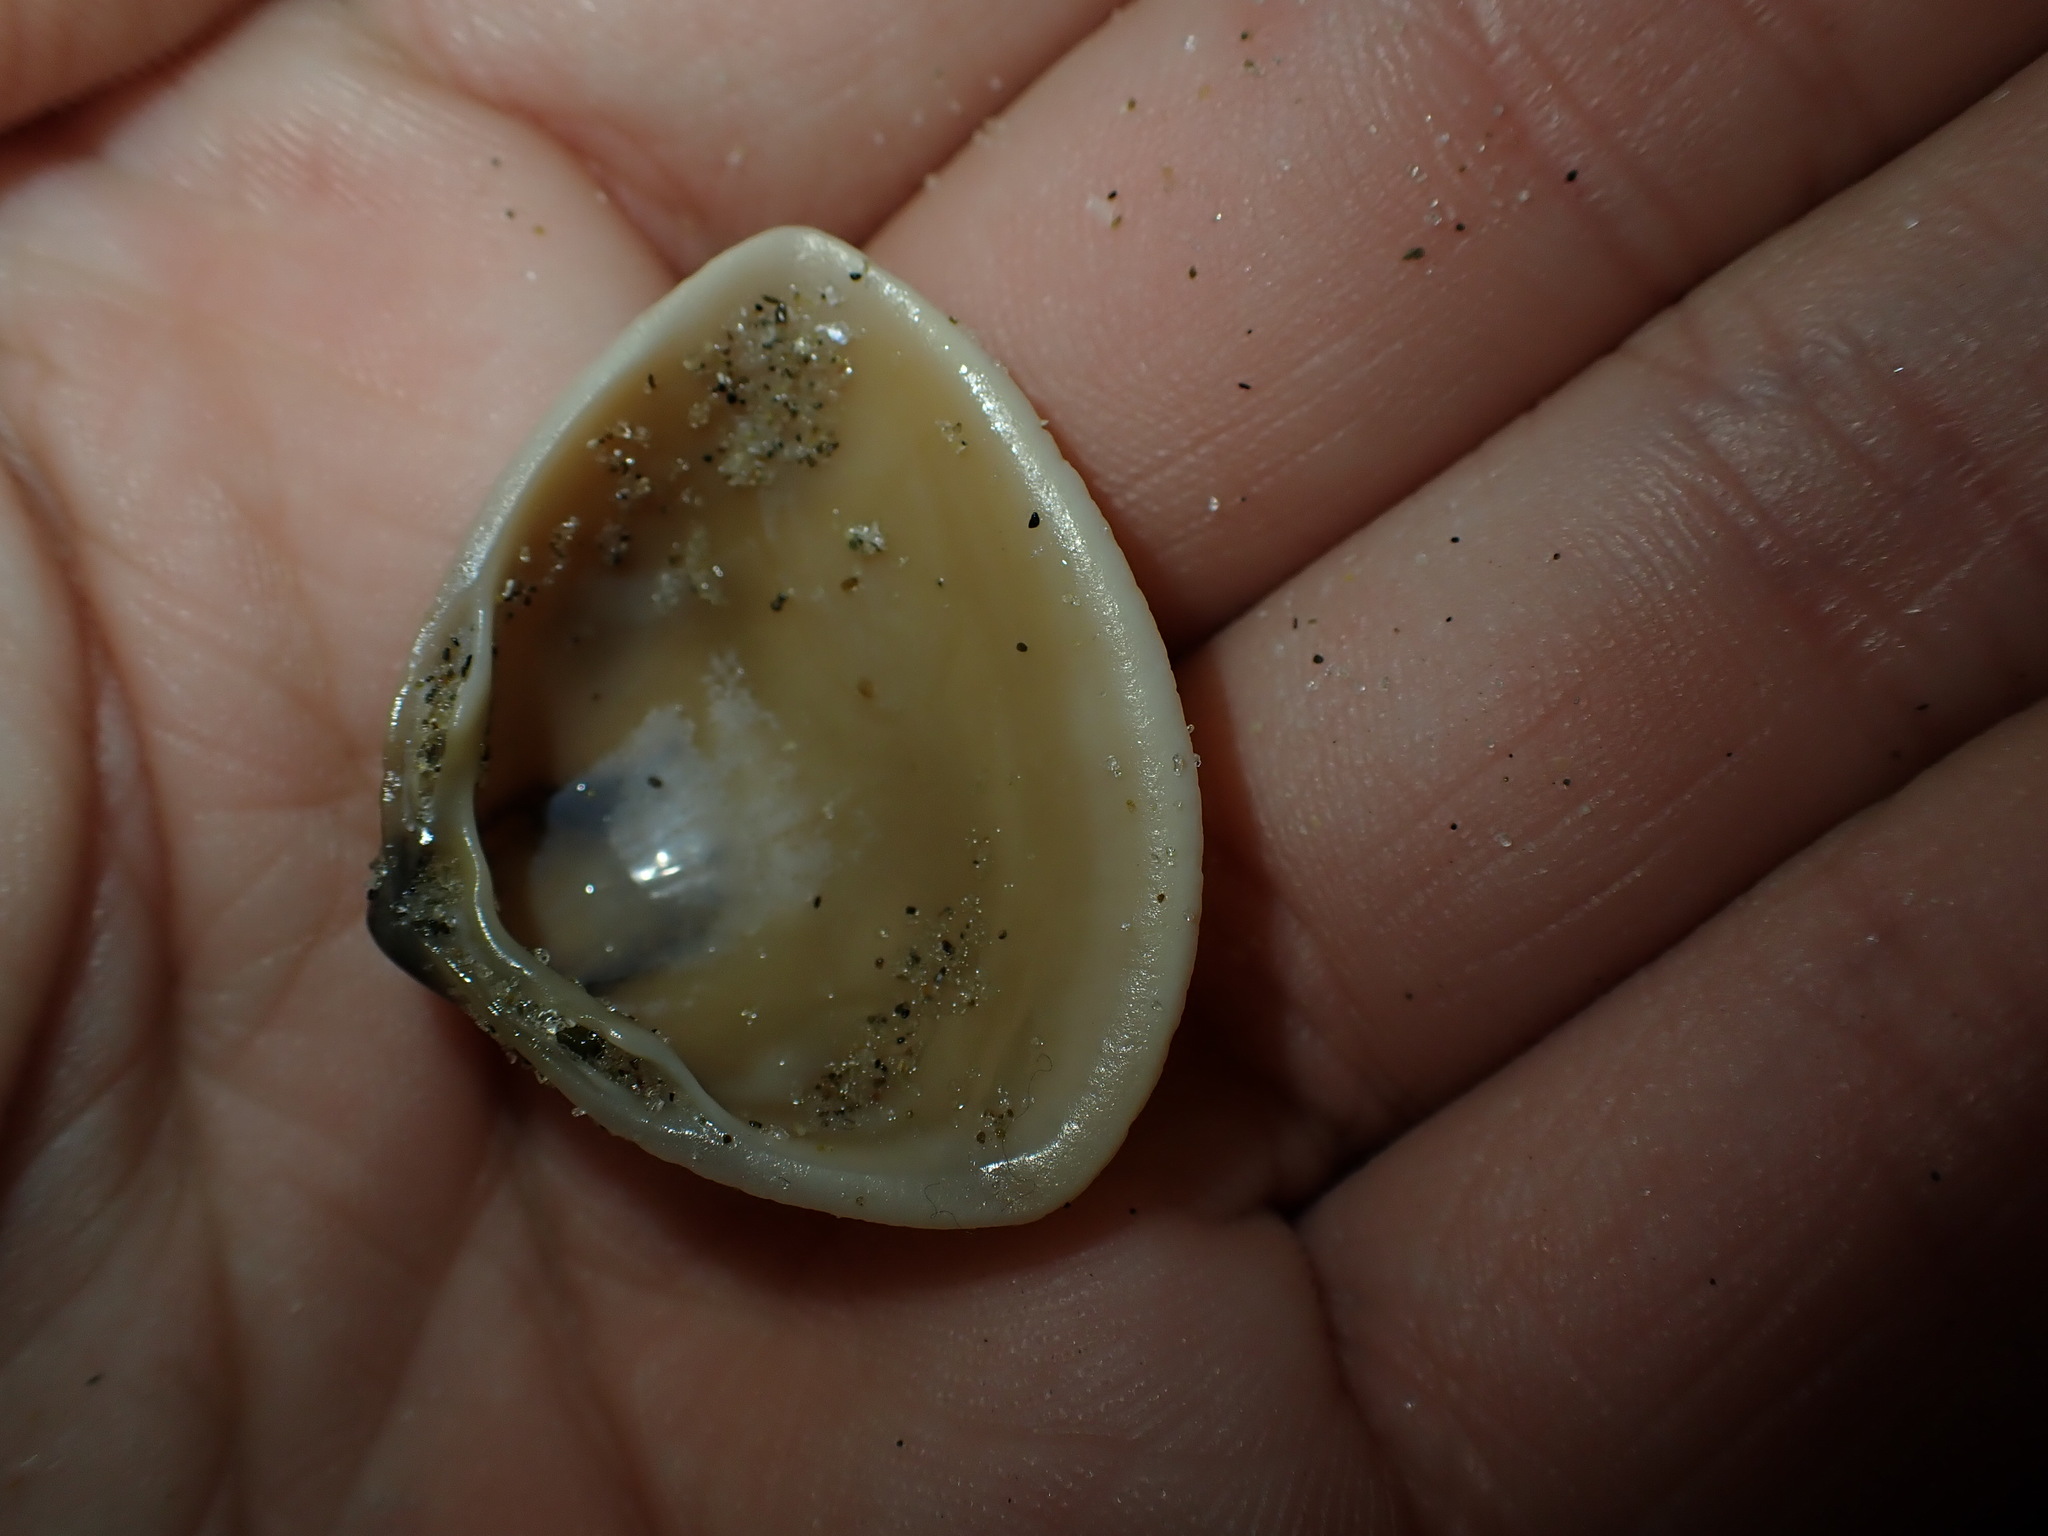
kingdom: Animalia
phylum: Mollusca
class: Bivalvia
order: Venerida
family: Mactridae
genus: Crassula
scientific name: Crassula aequilatera
